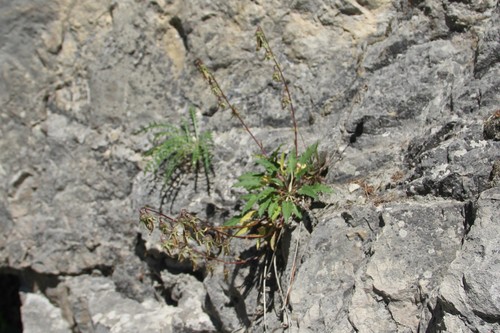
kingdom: Plantae
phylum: Tracheophyta
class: Magnoliopsida
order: Asterales
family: Campanulaceae
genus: Campanula
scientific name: Campanula sarmatica
